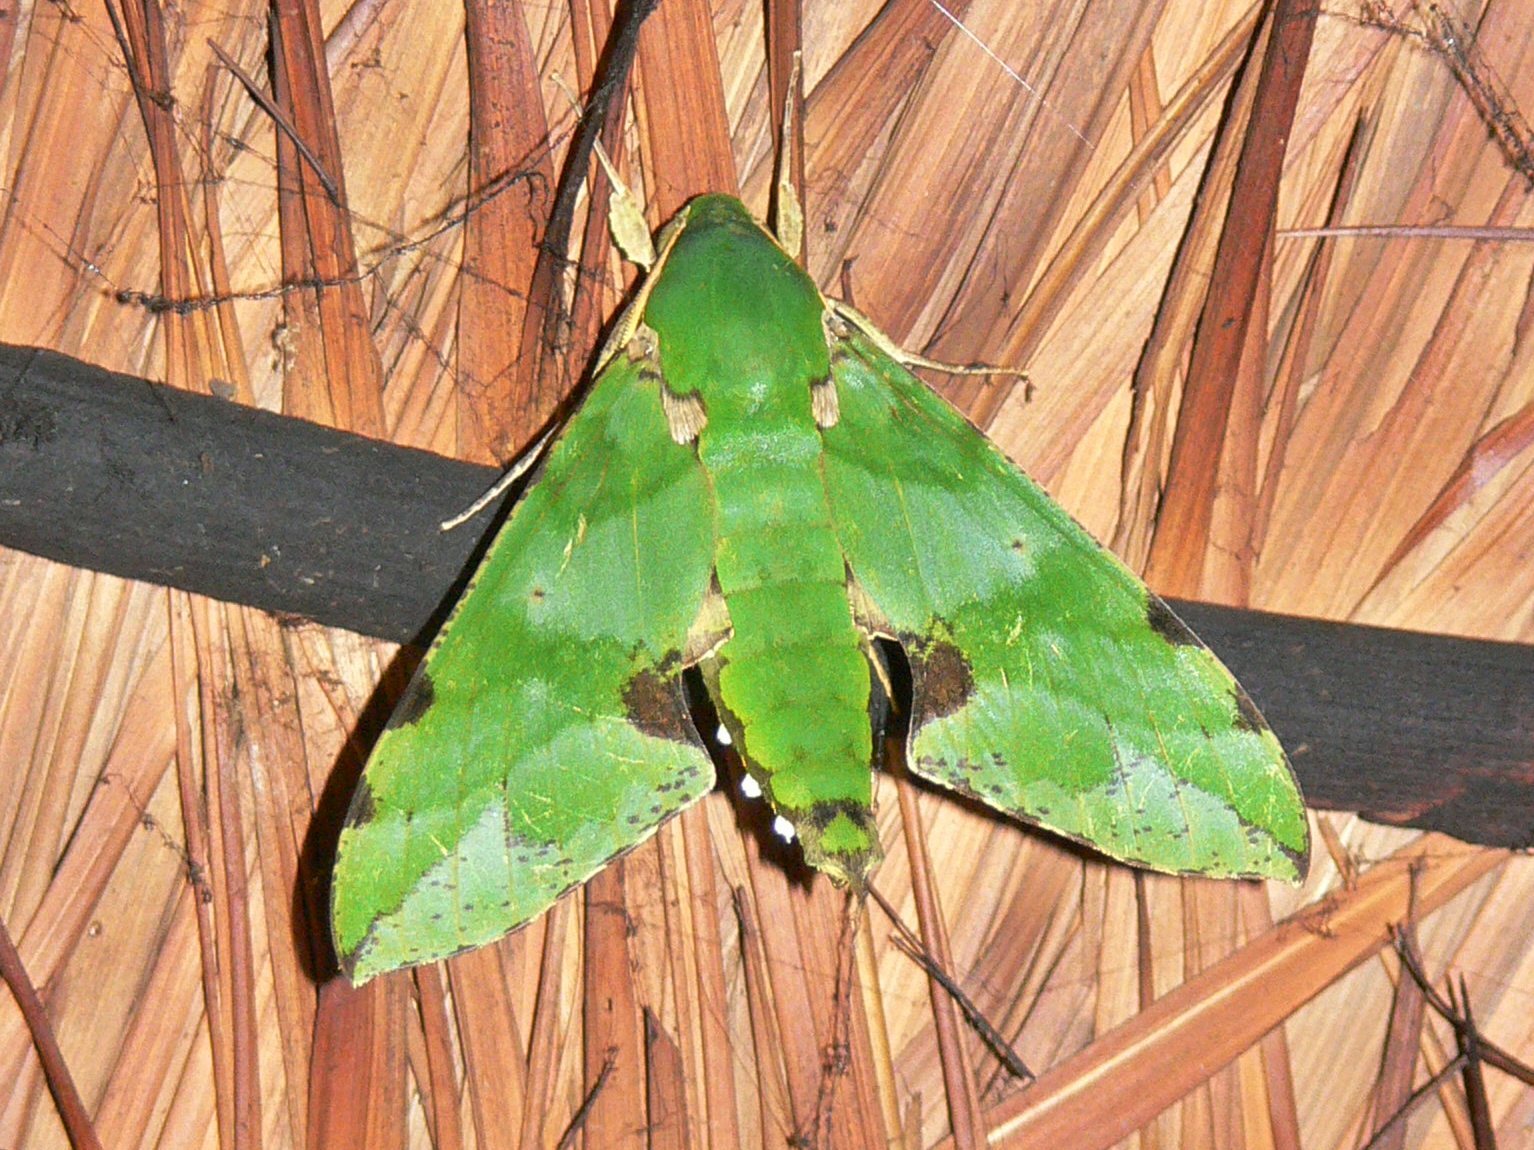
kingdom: Animalia
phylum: Arthropoda
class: Insecta
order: Lepidoptera
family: Sphingidae
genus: Euchloron
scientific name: Euchloron megaera
